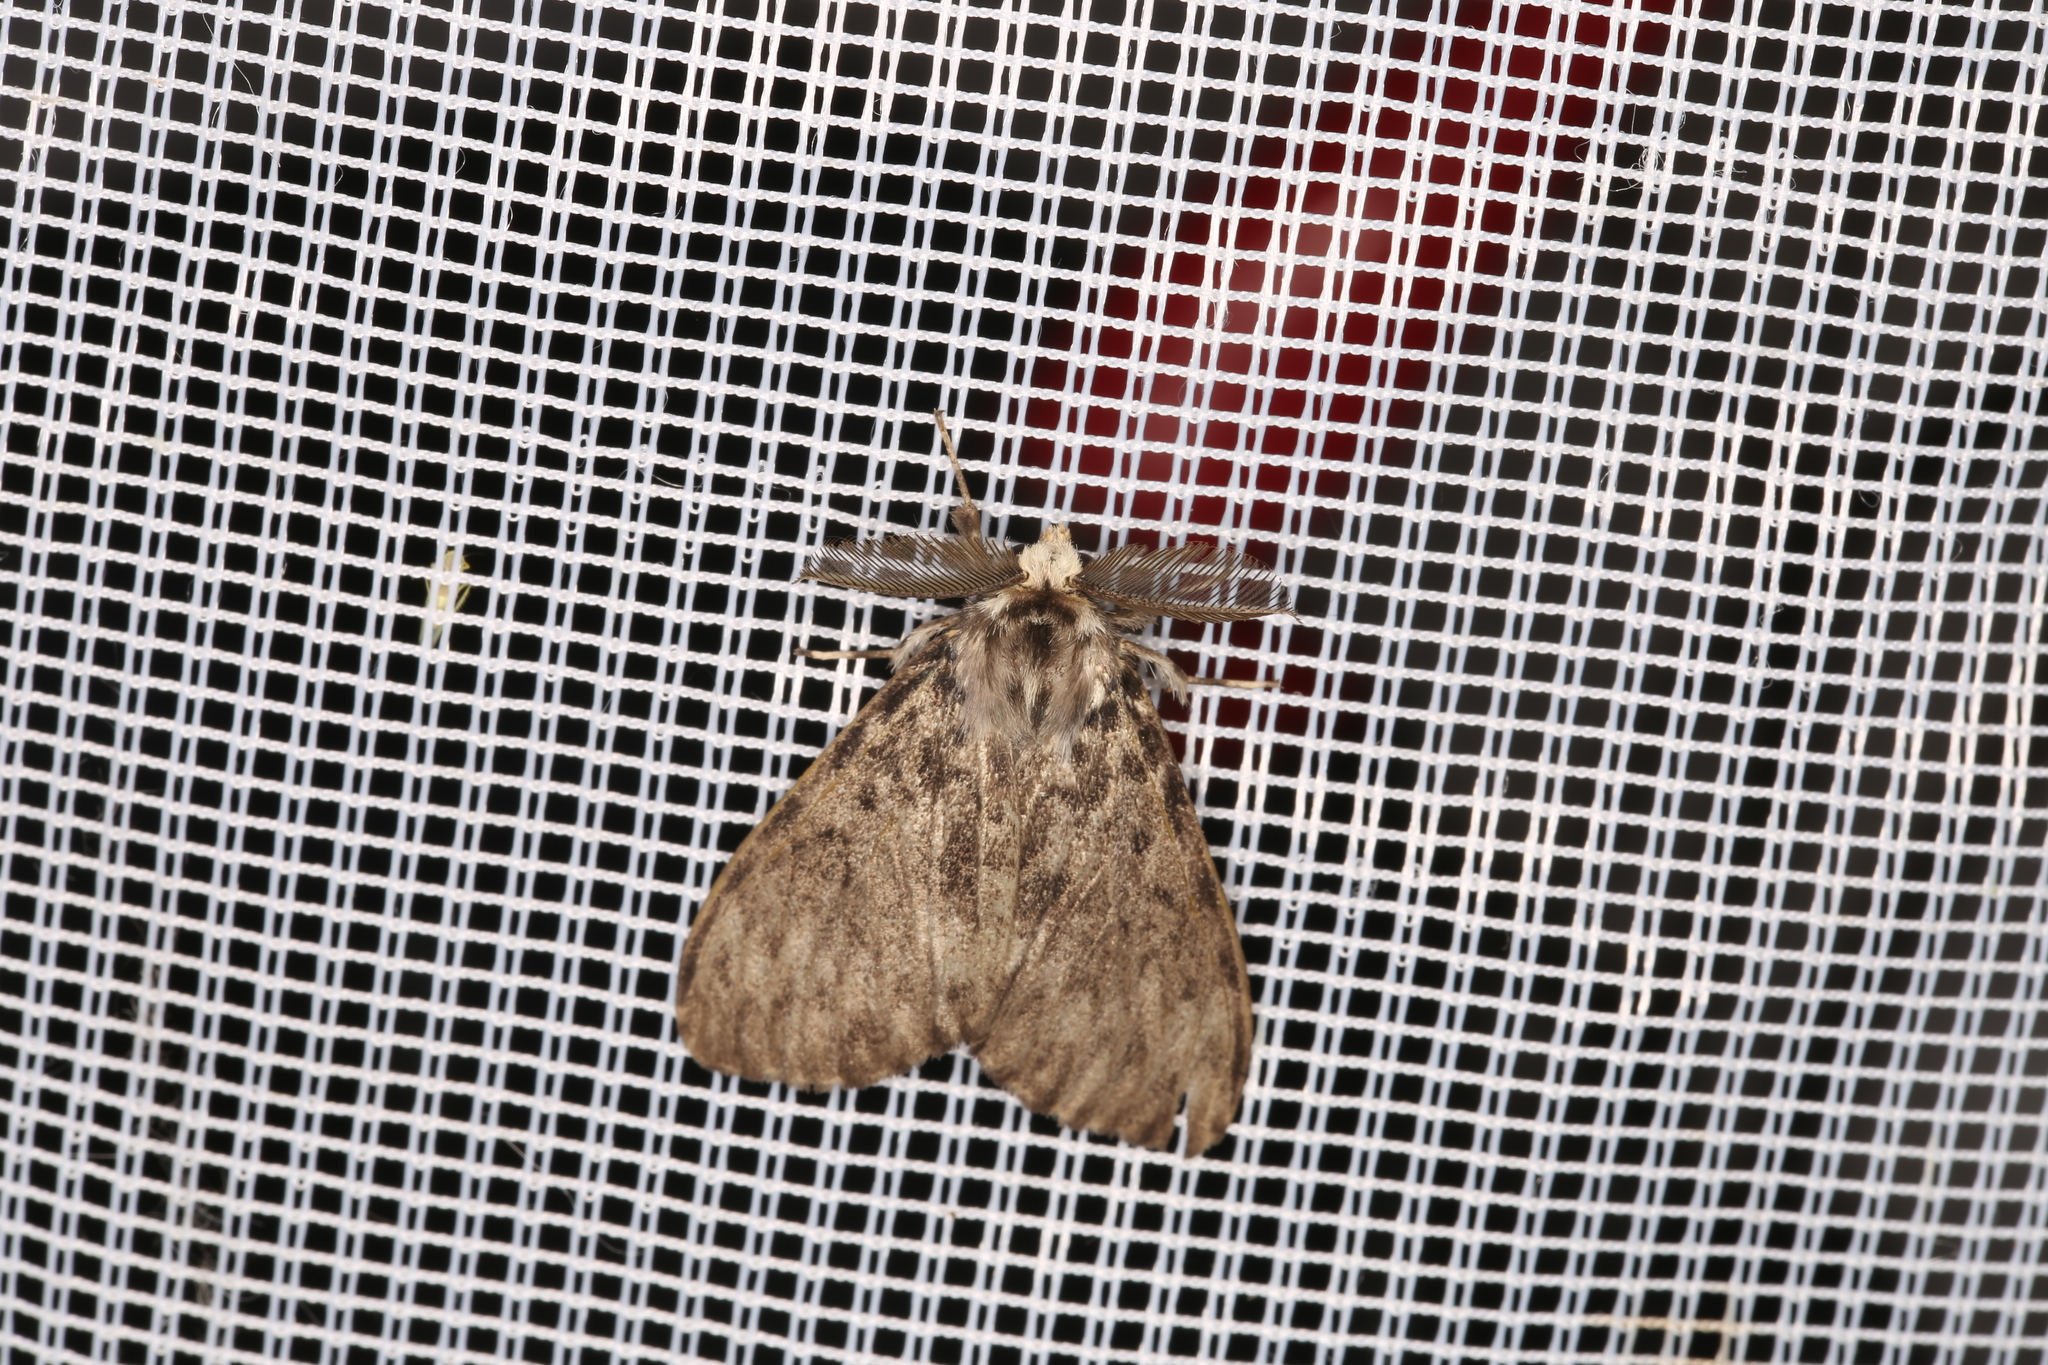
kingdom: Animalia
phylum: Arthropoda
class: Insecta
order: Lepidoptera
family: Erebidae
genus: Lymantria
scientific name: Lymantria monacha
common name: Black arches
